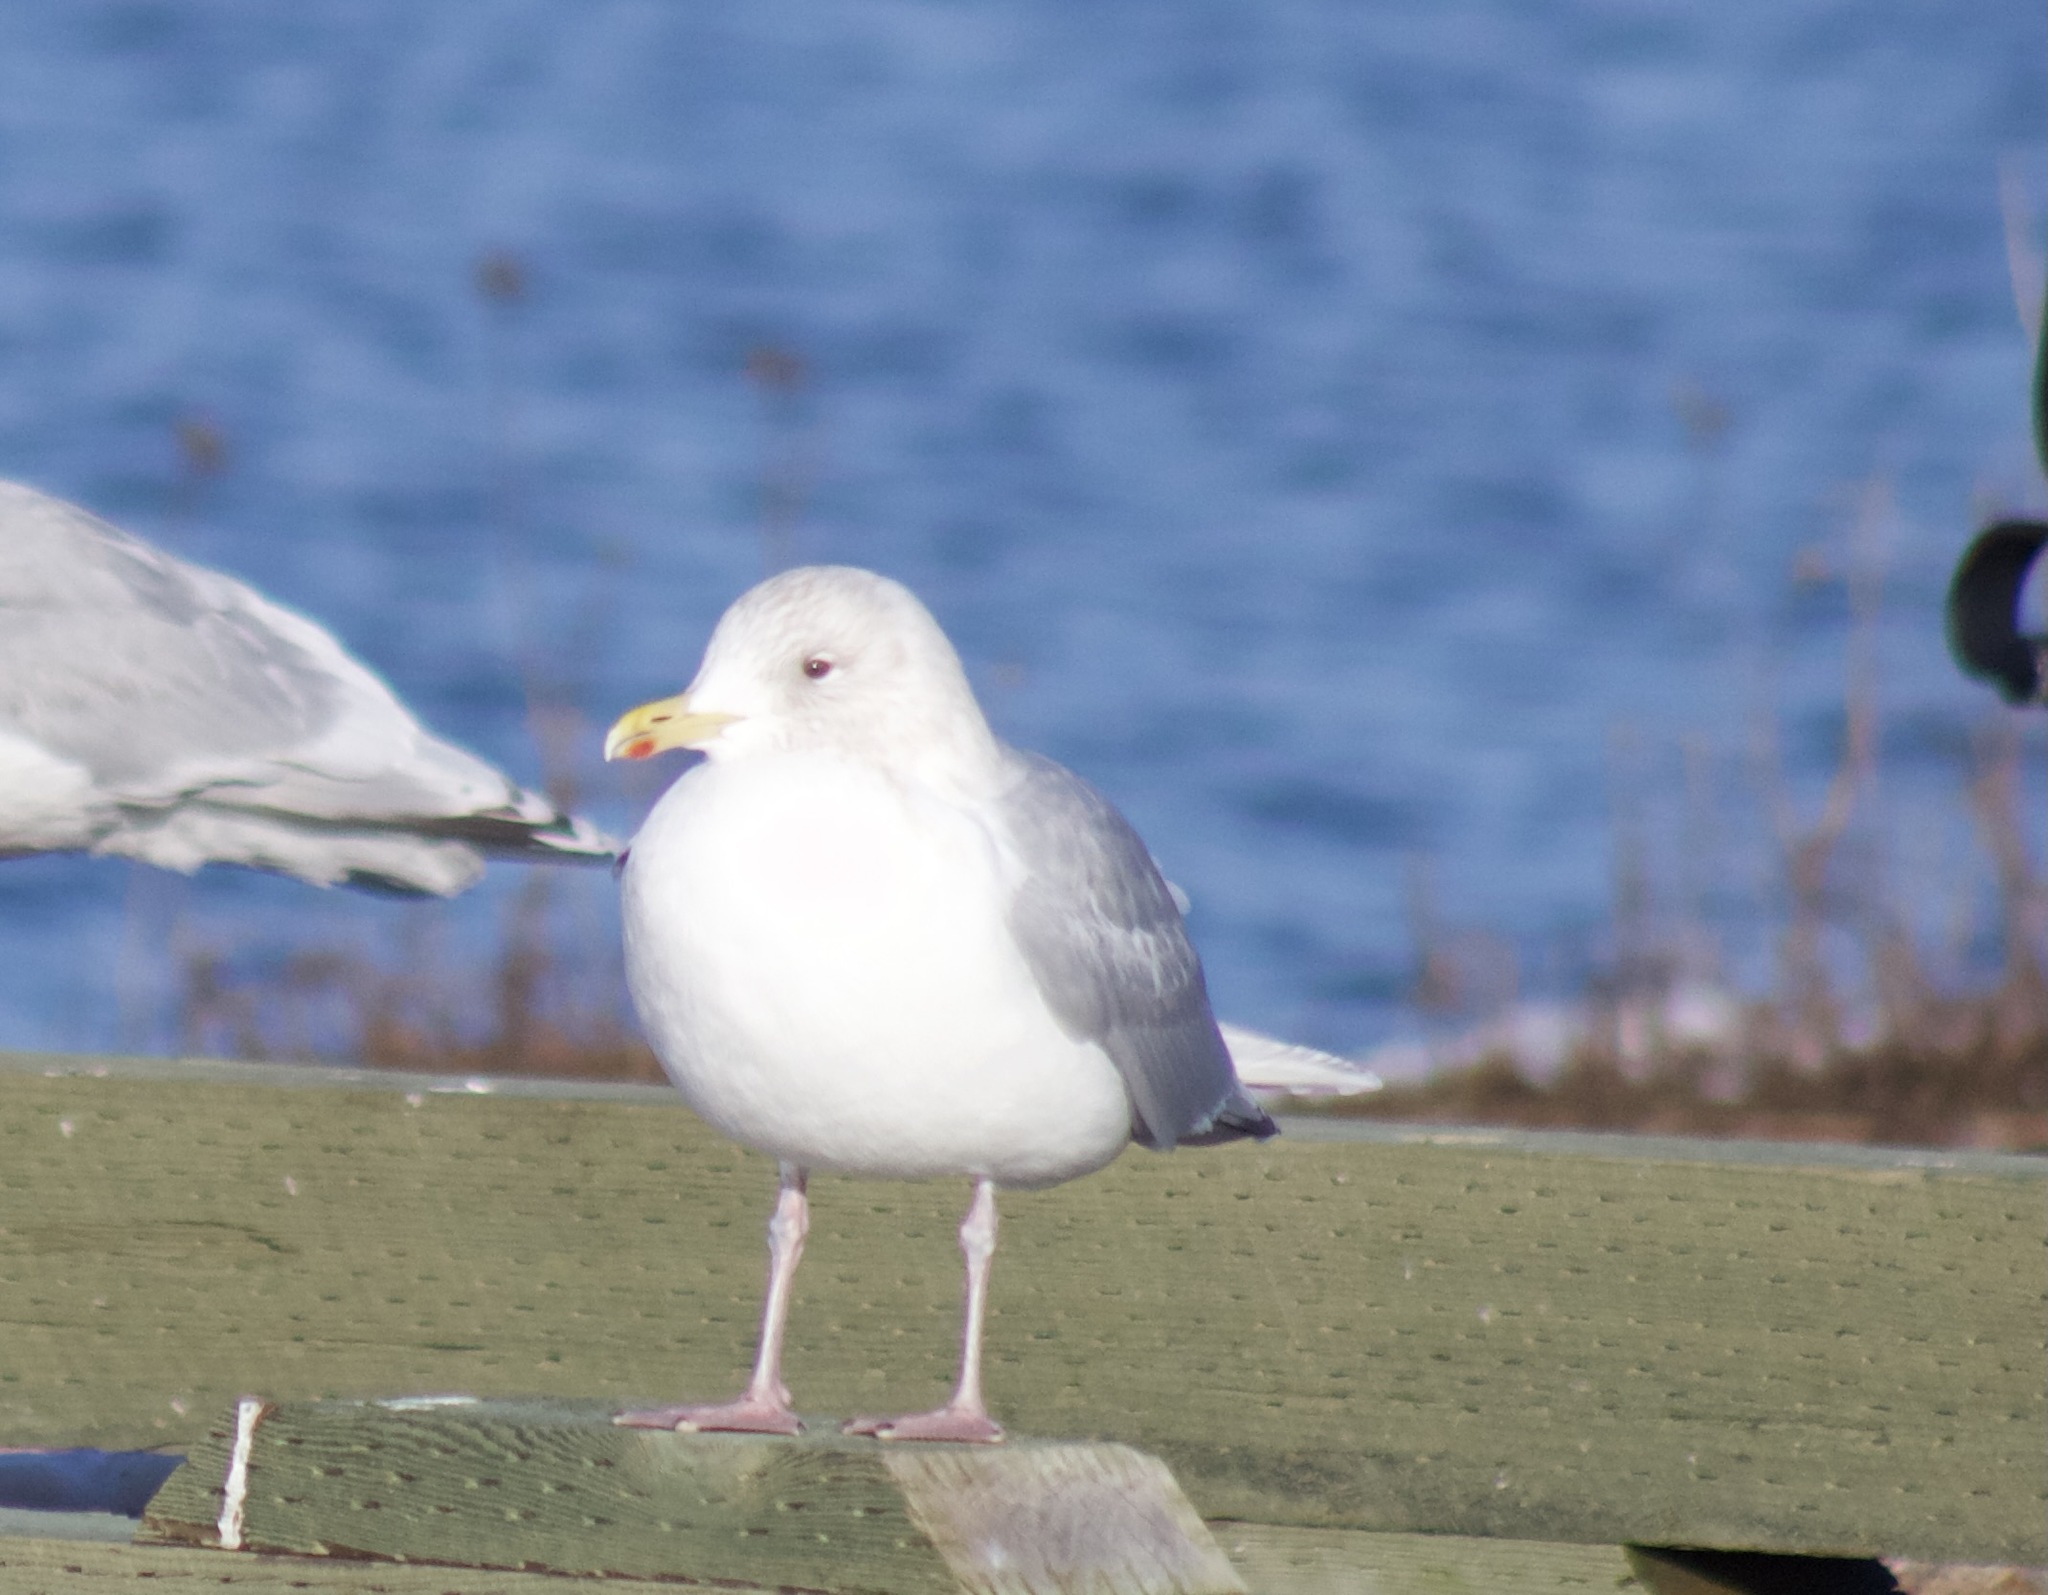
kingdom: Animalia
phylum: Chordata
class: Aves
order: Charadriiformes
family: Laridae
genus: Larus
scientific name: Larus argentatus
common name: Herring gull
